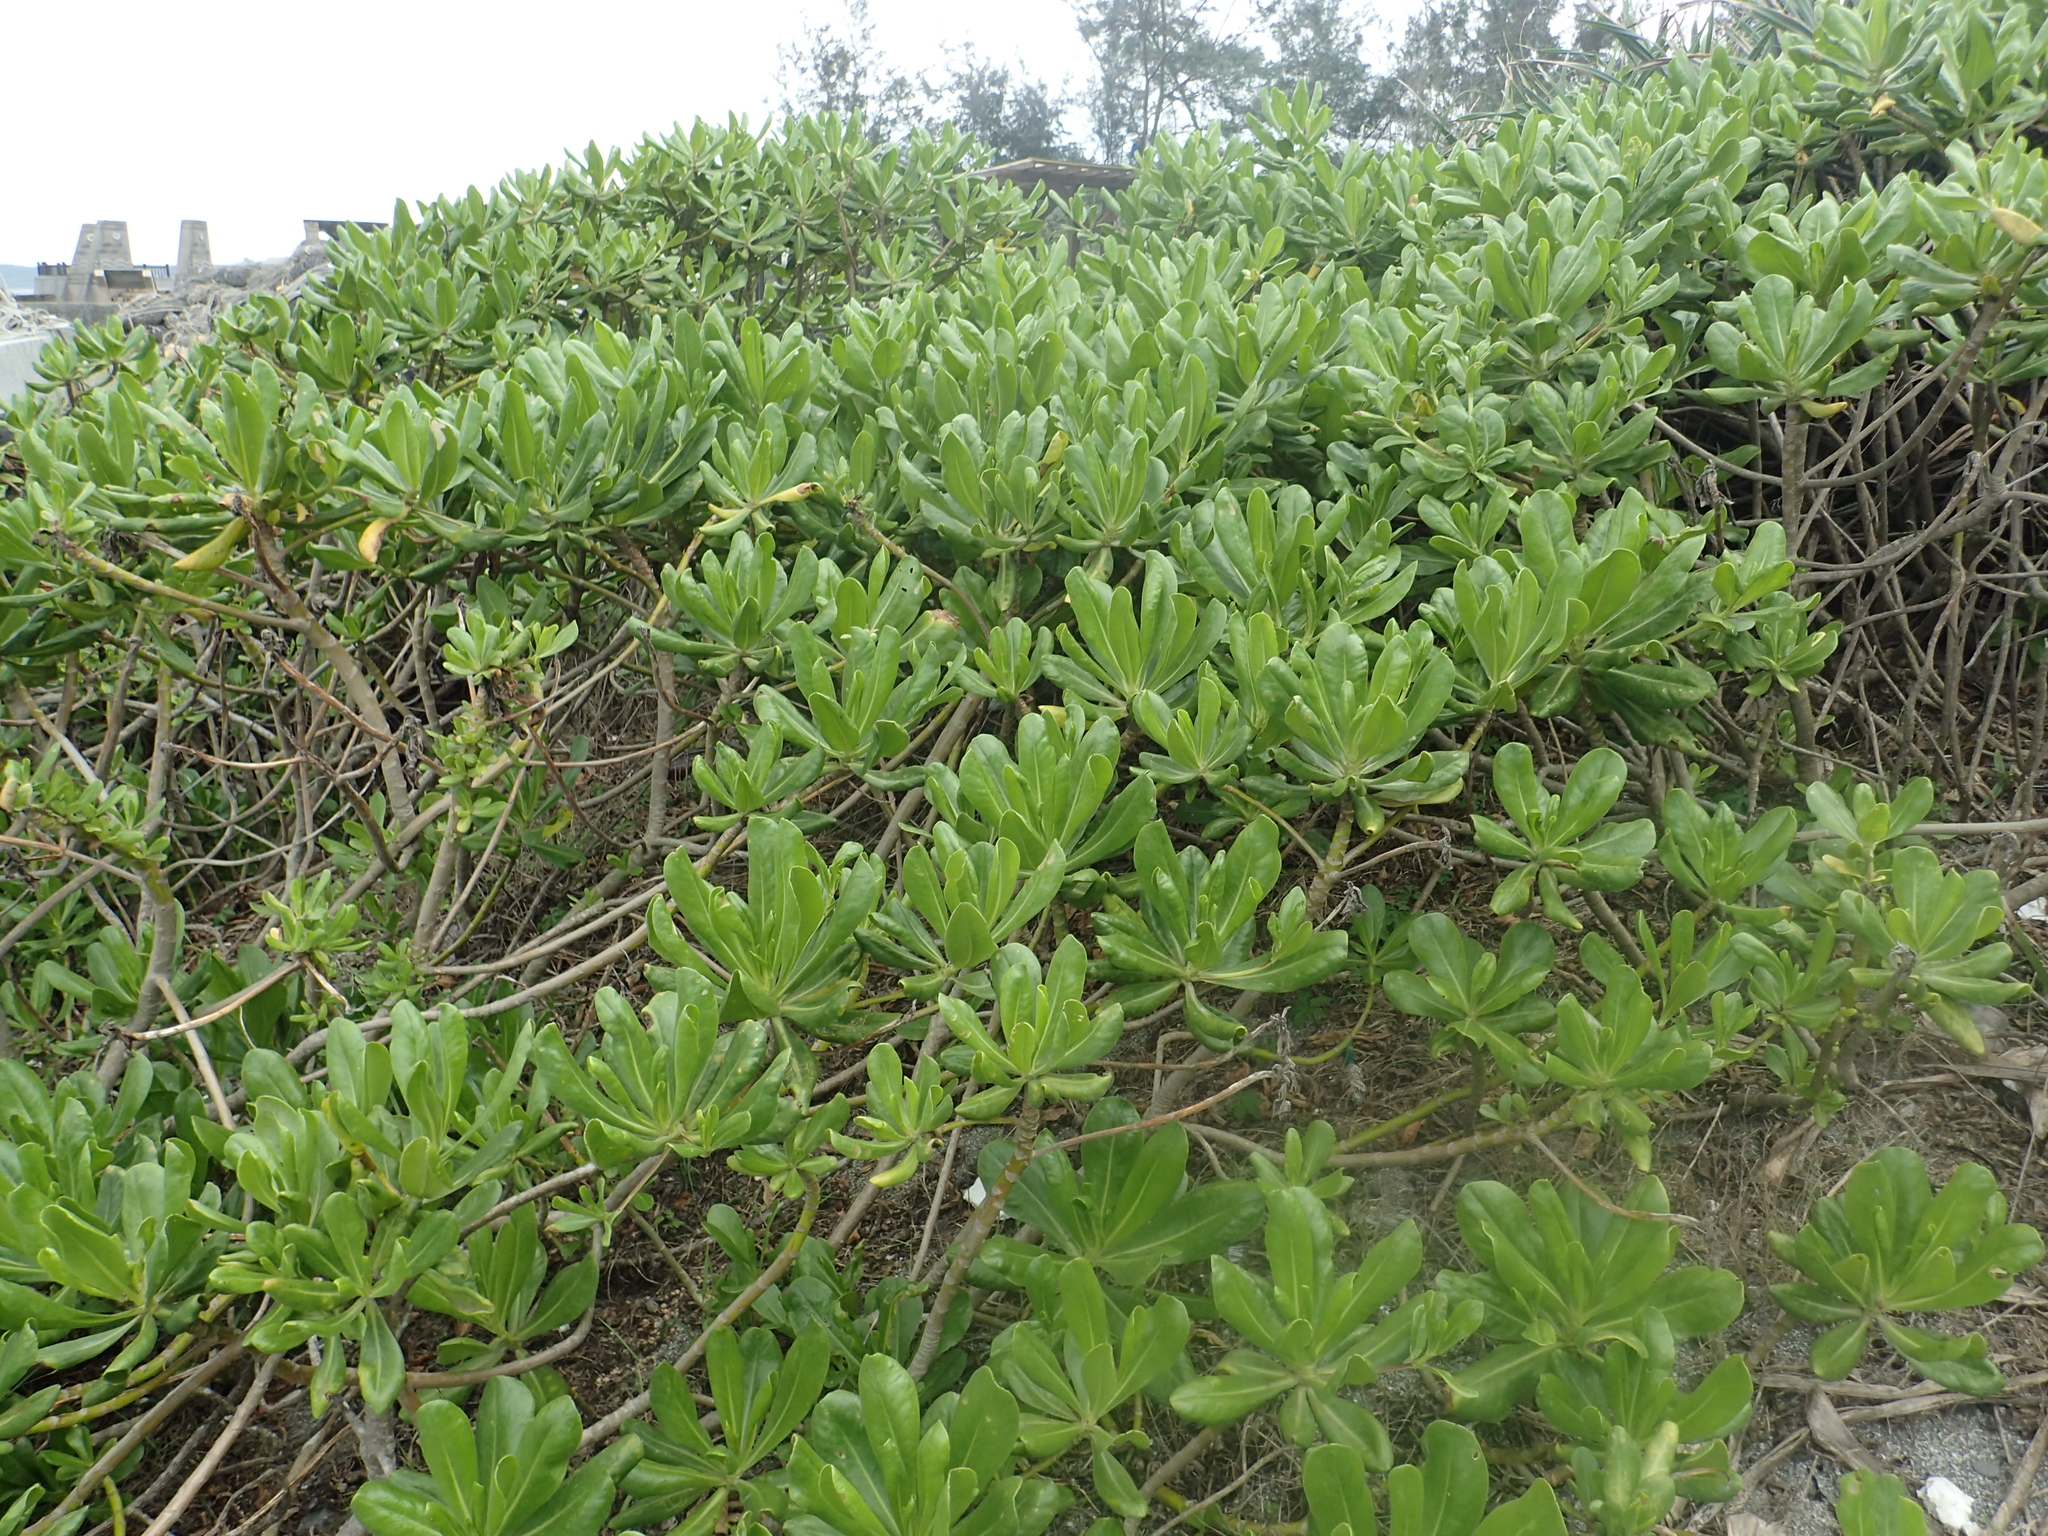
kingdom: Plantae
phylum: Tracheophyta
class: Magnoliopsida
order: Asterales
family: Goodeniaceae
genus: Scaevola
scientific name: Scaevola taccada
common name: Sea lettucetree
